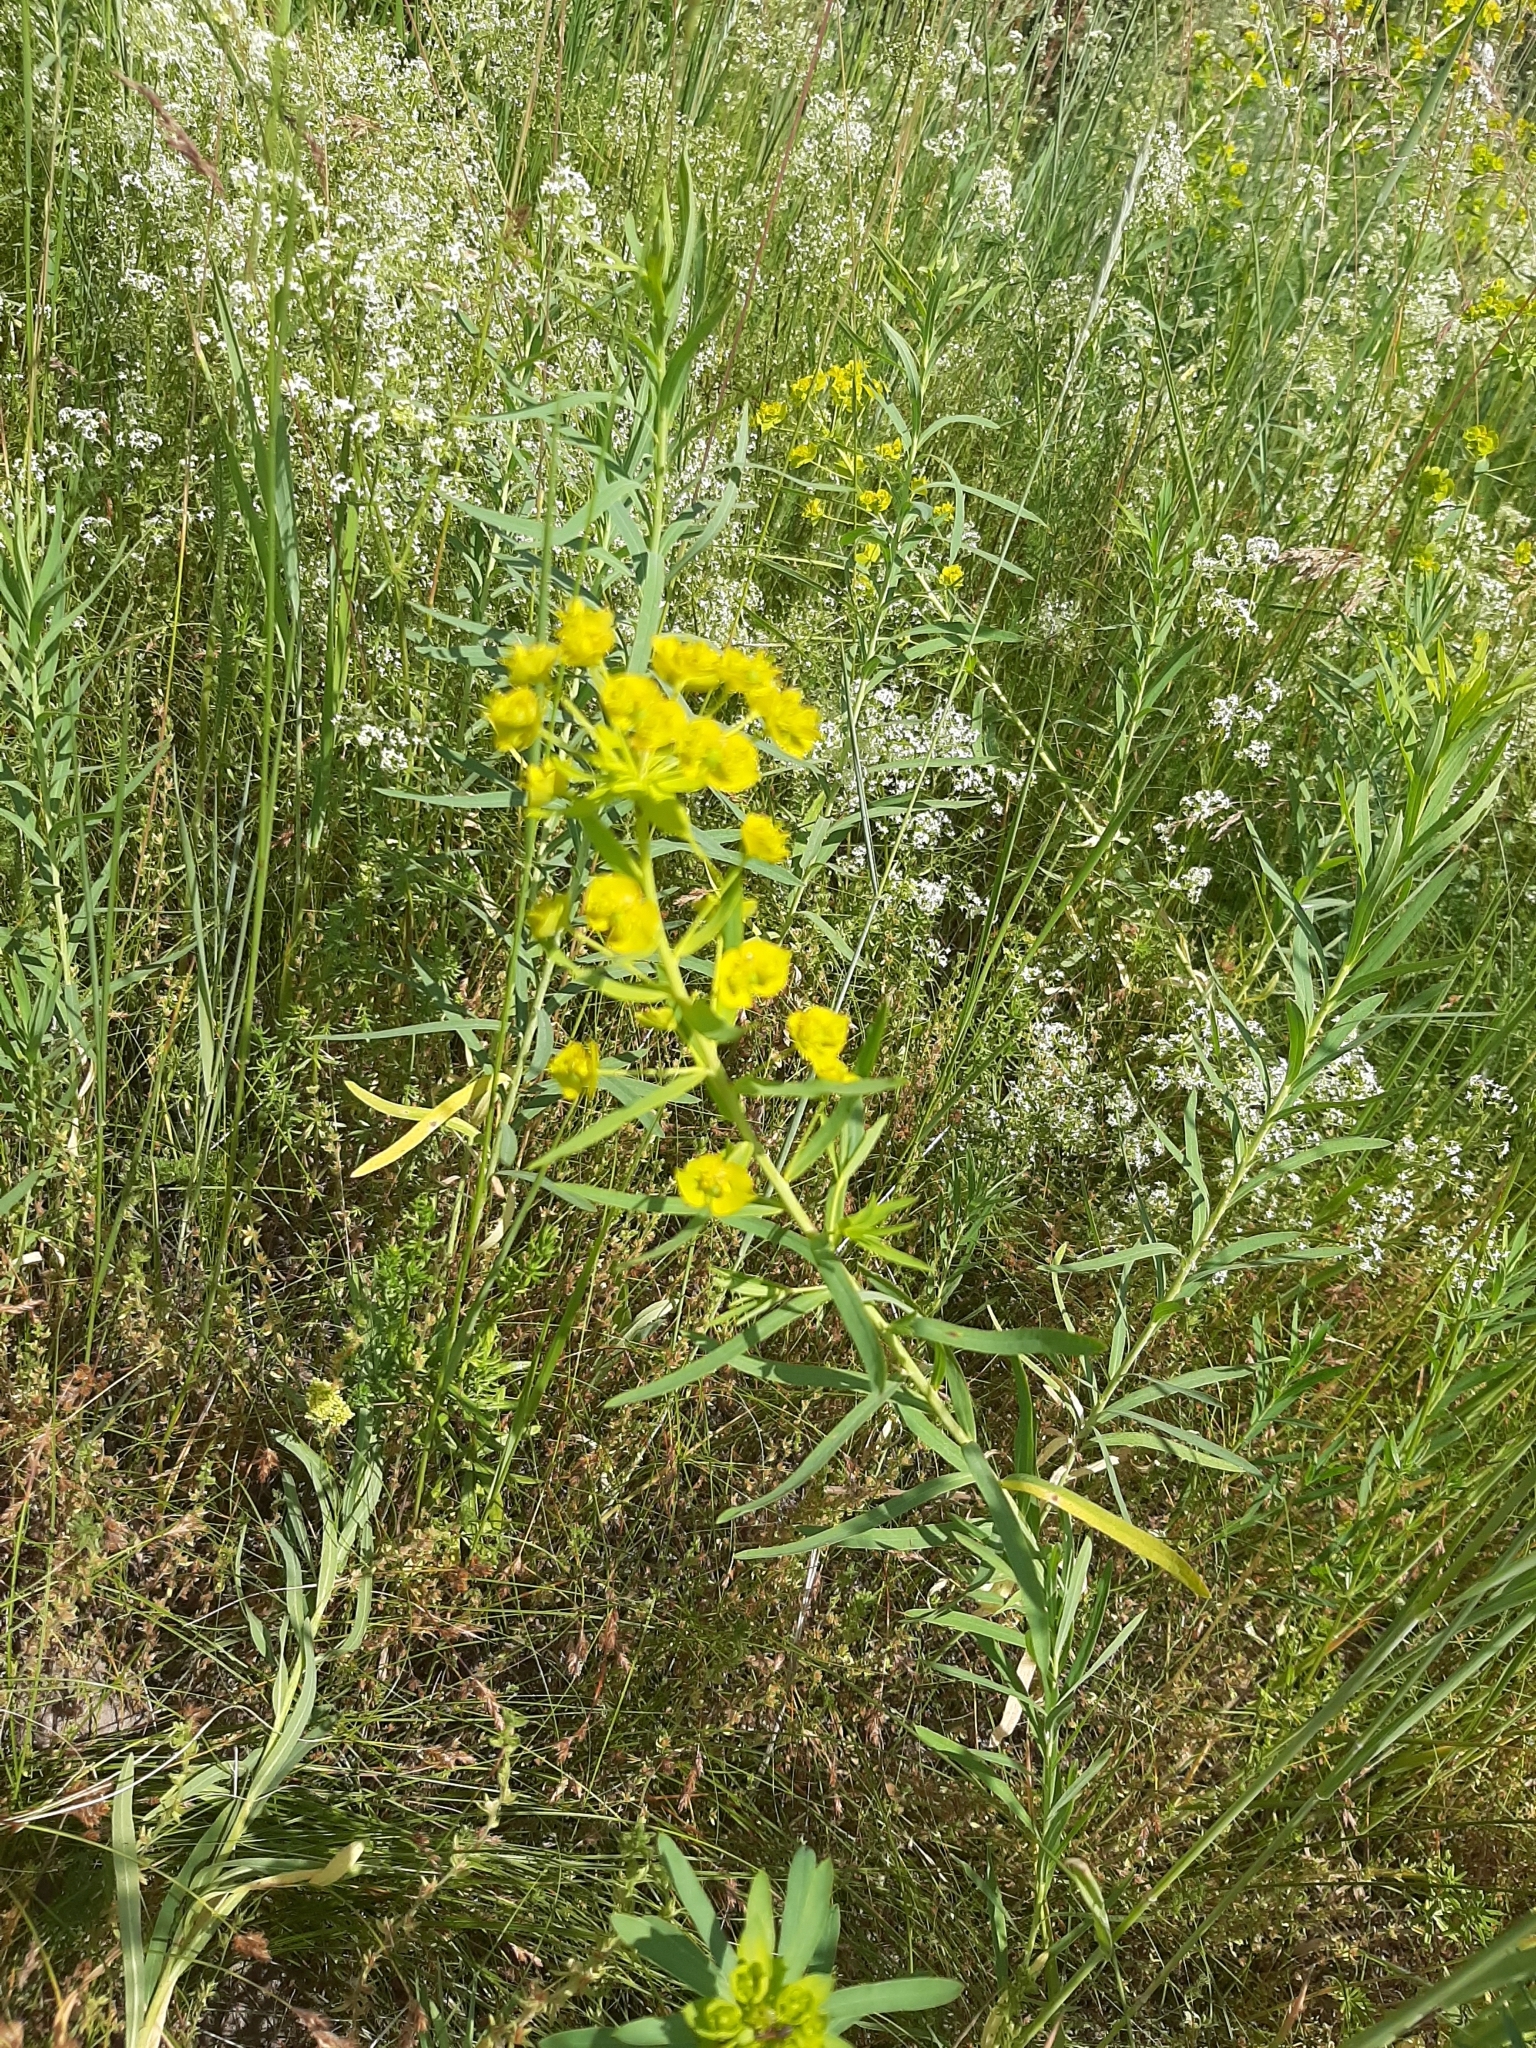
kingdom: Plantae
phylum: Tracheophyta
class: Magnoliopsida
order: Malpighiales
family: Euphorbiaceae
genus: Euphorbia
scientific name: Euphorbia virgata
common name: Leafy spurge
